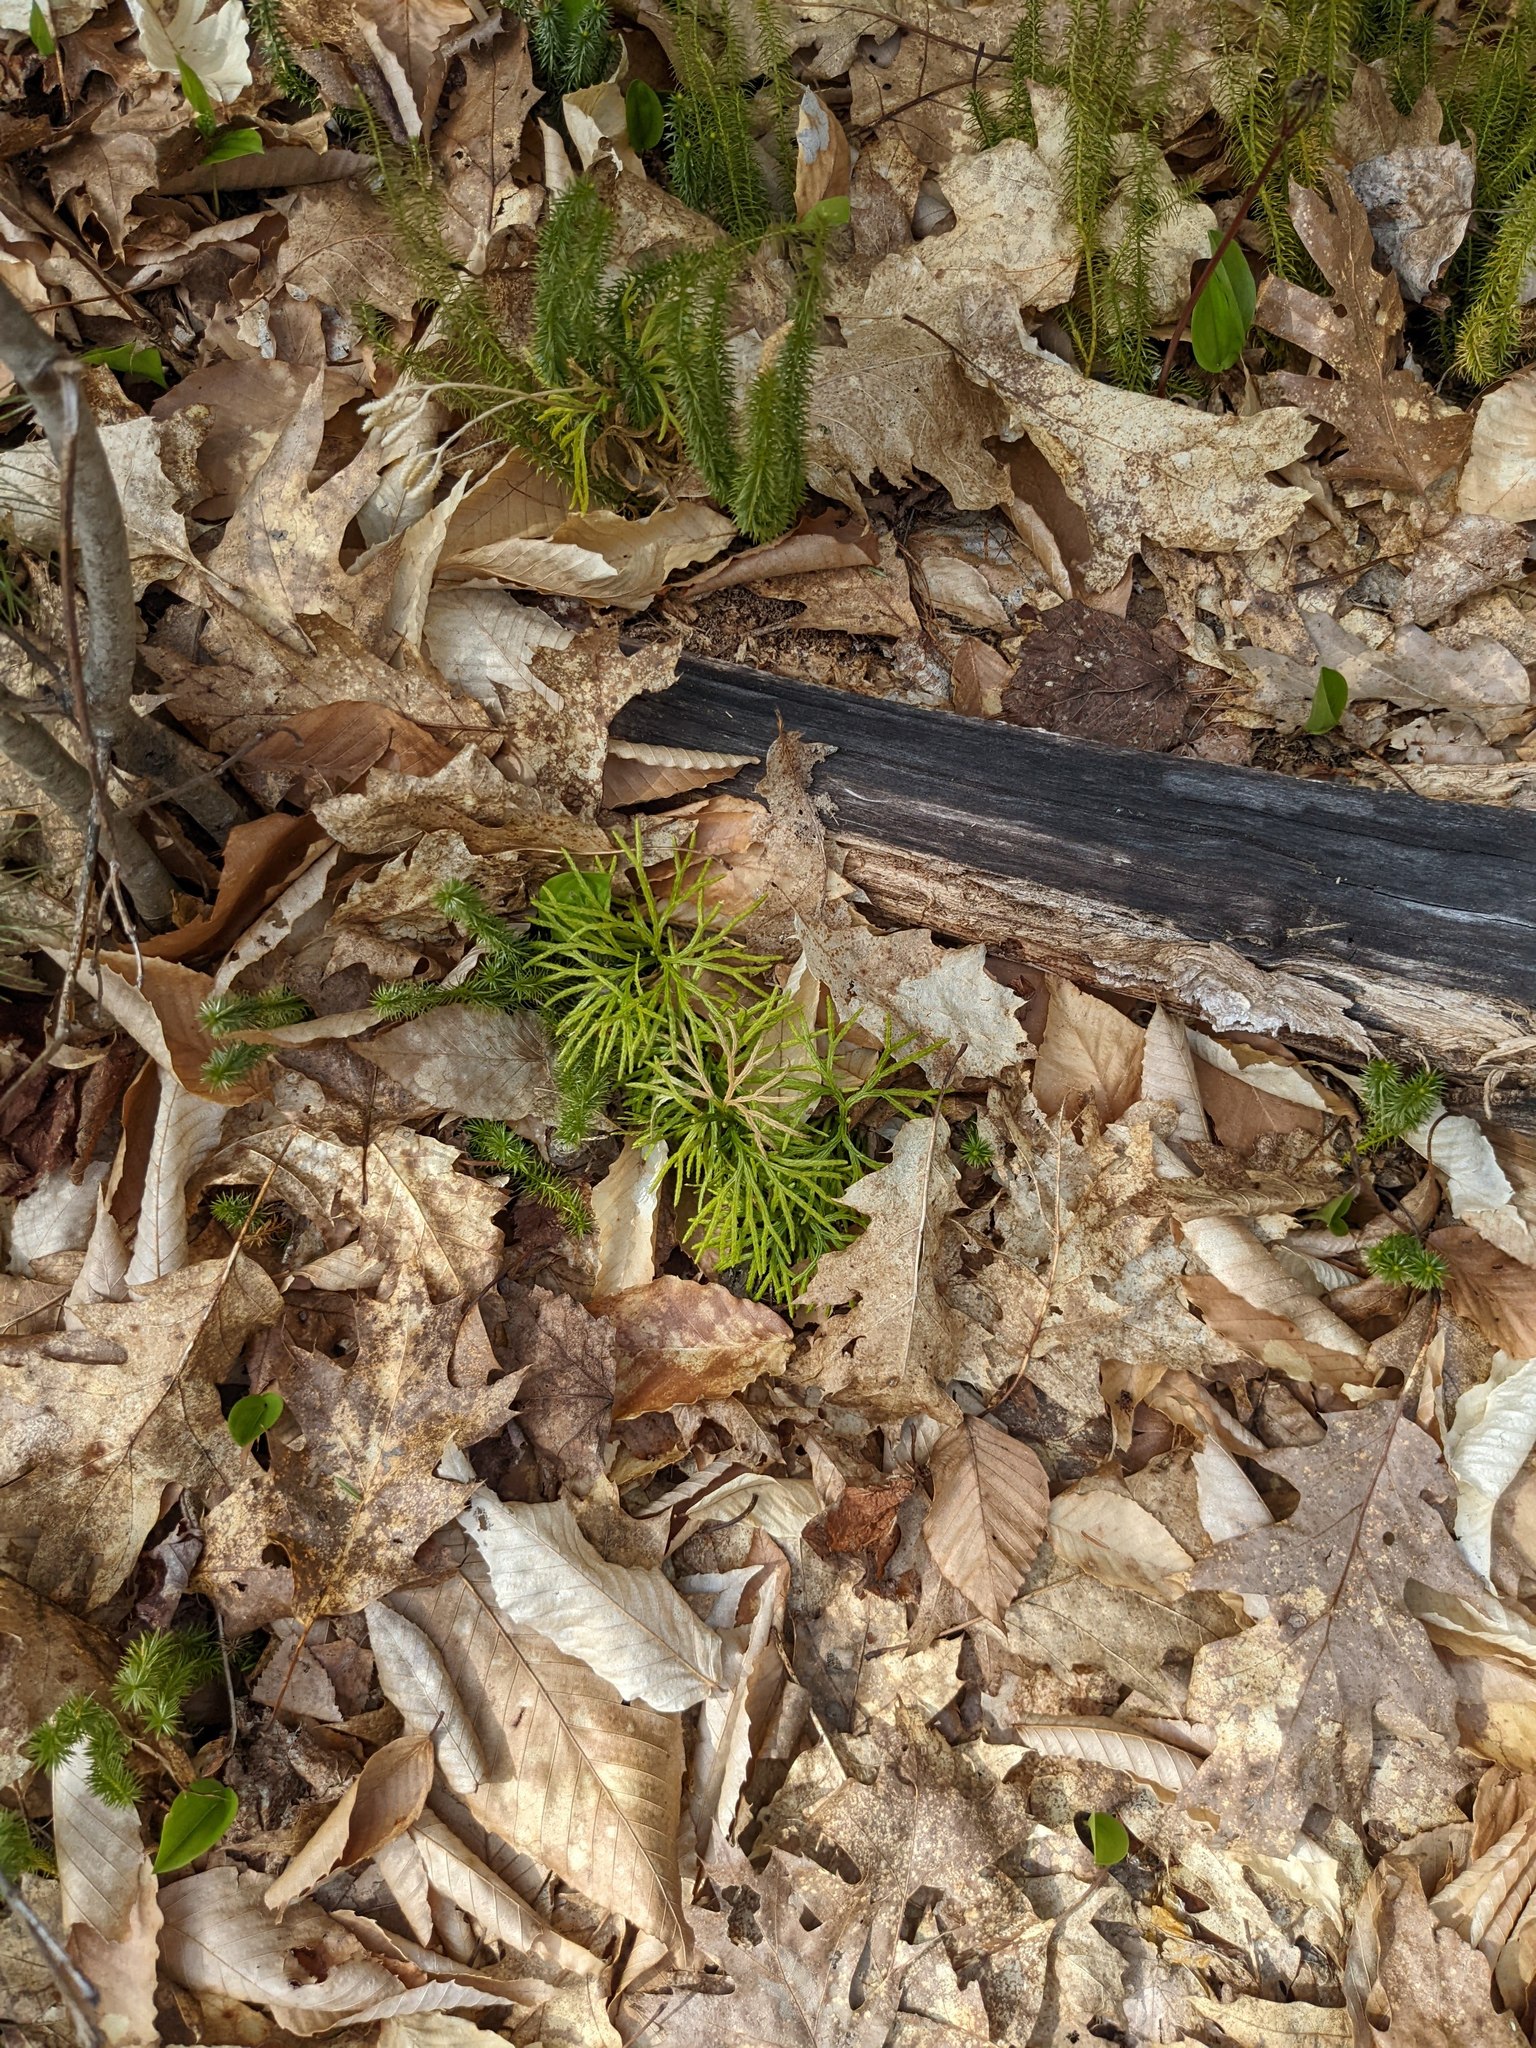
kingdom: Plantae
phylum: Tracheophyta
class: Lycopodiopsida
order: Lycopodiales
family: Lycopodiaceae
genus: Diphasiastrum
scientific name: Diphasiastrum digitatum
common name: Southern running-pine
